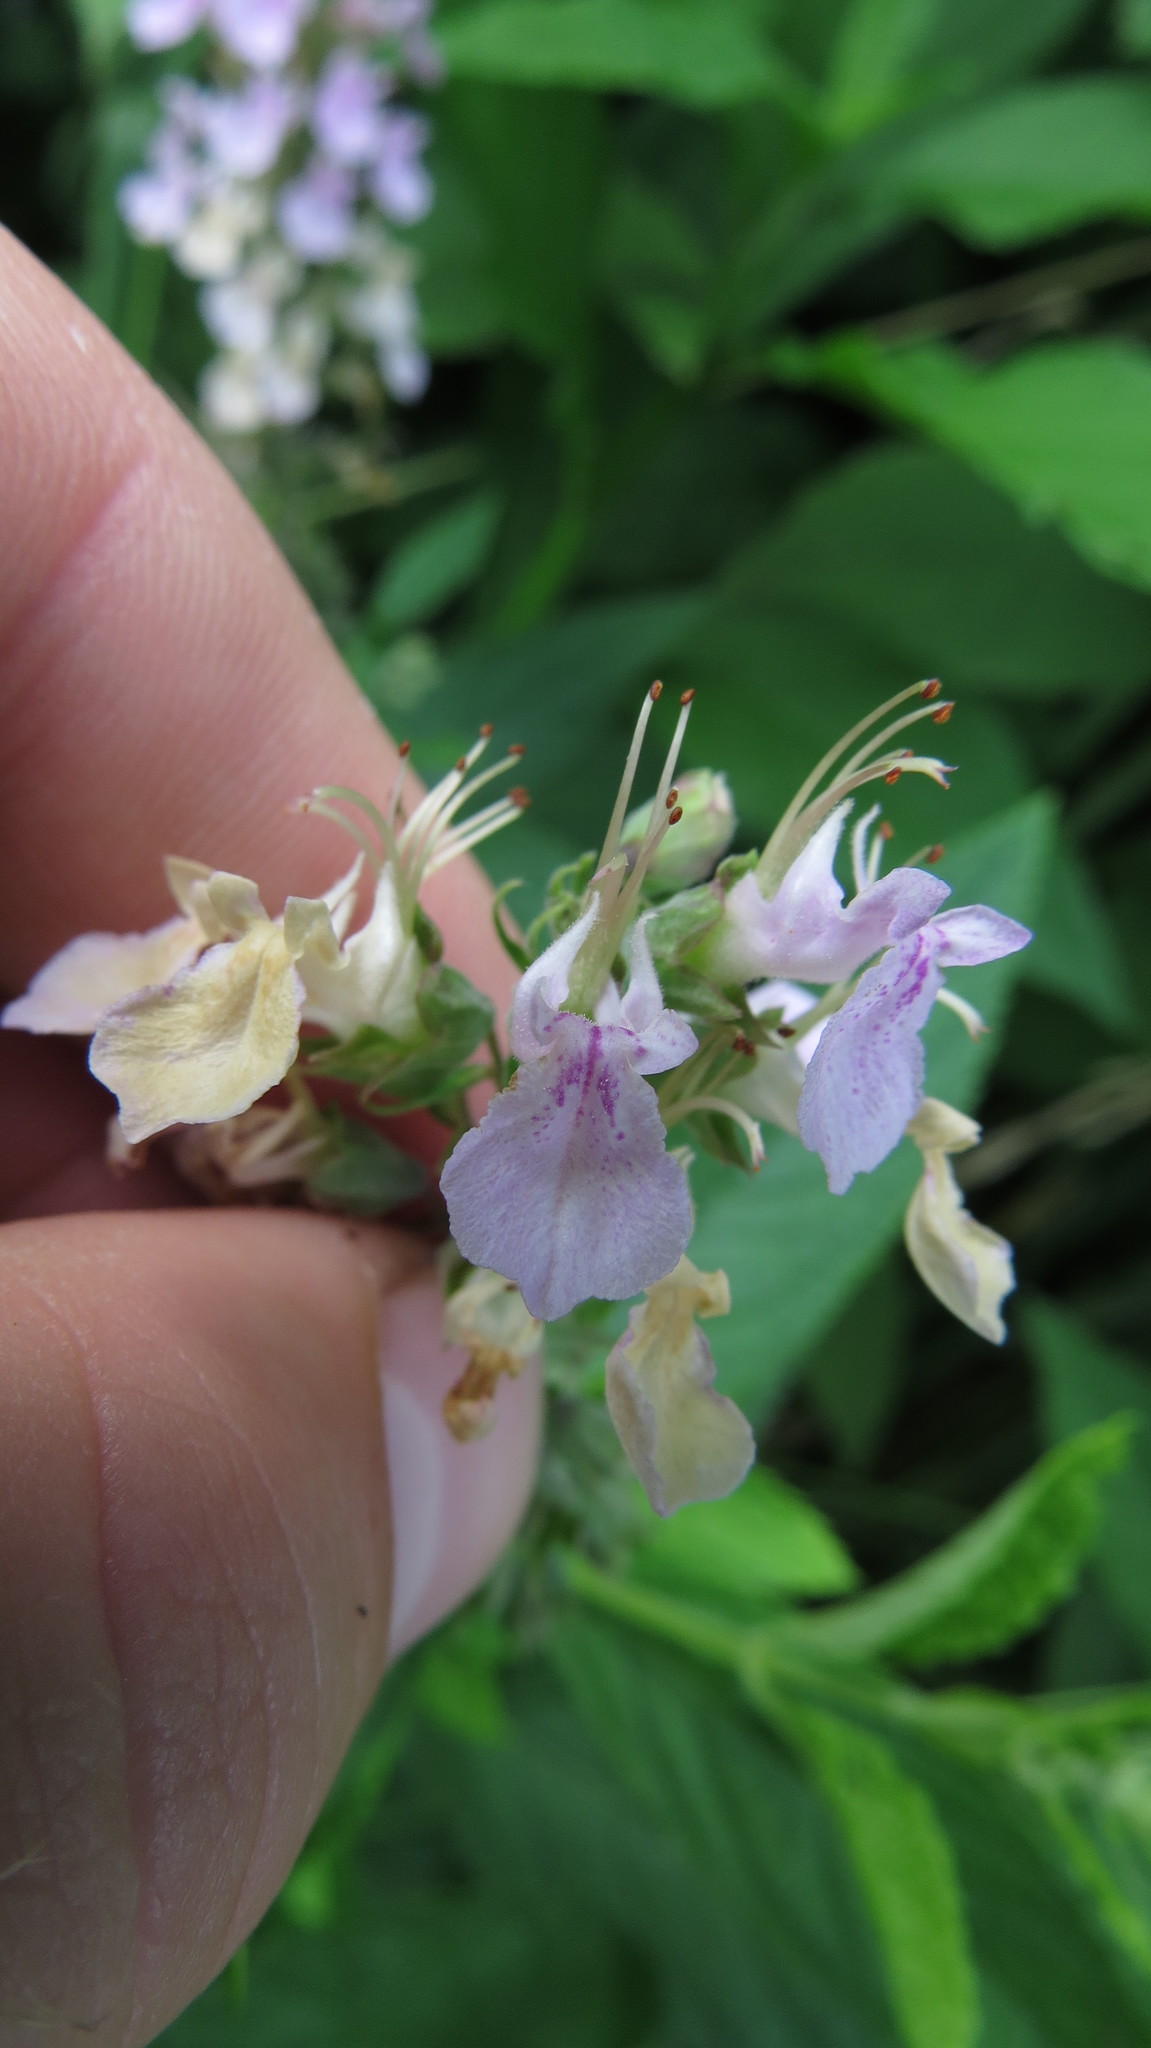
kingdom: Plantae
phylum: Tracheophyta
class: Magnoliopsida
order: Lamiales
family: Lamiaceae
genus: Teucrium
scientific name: Teucrium canadense
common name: American germander
